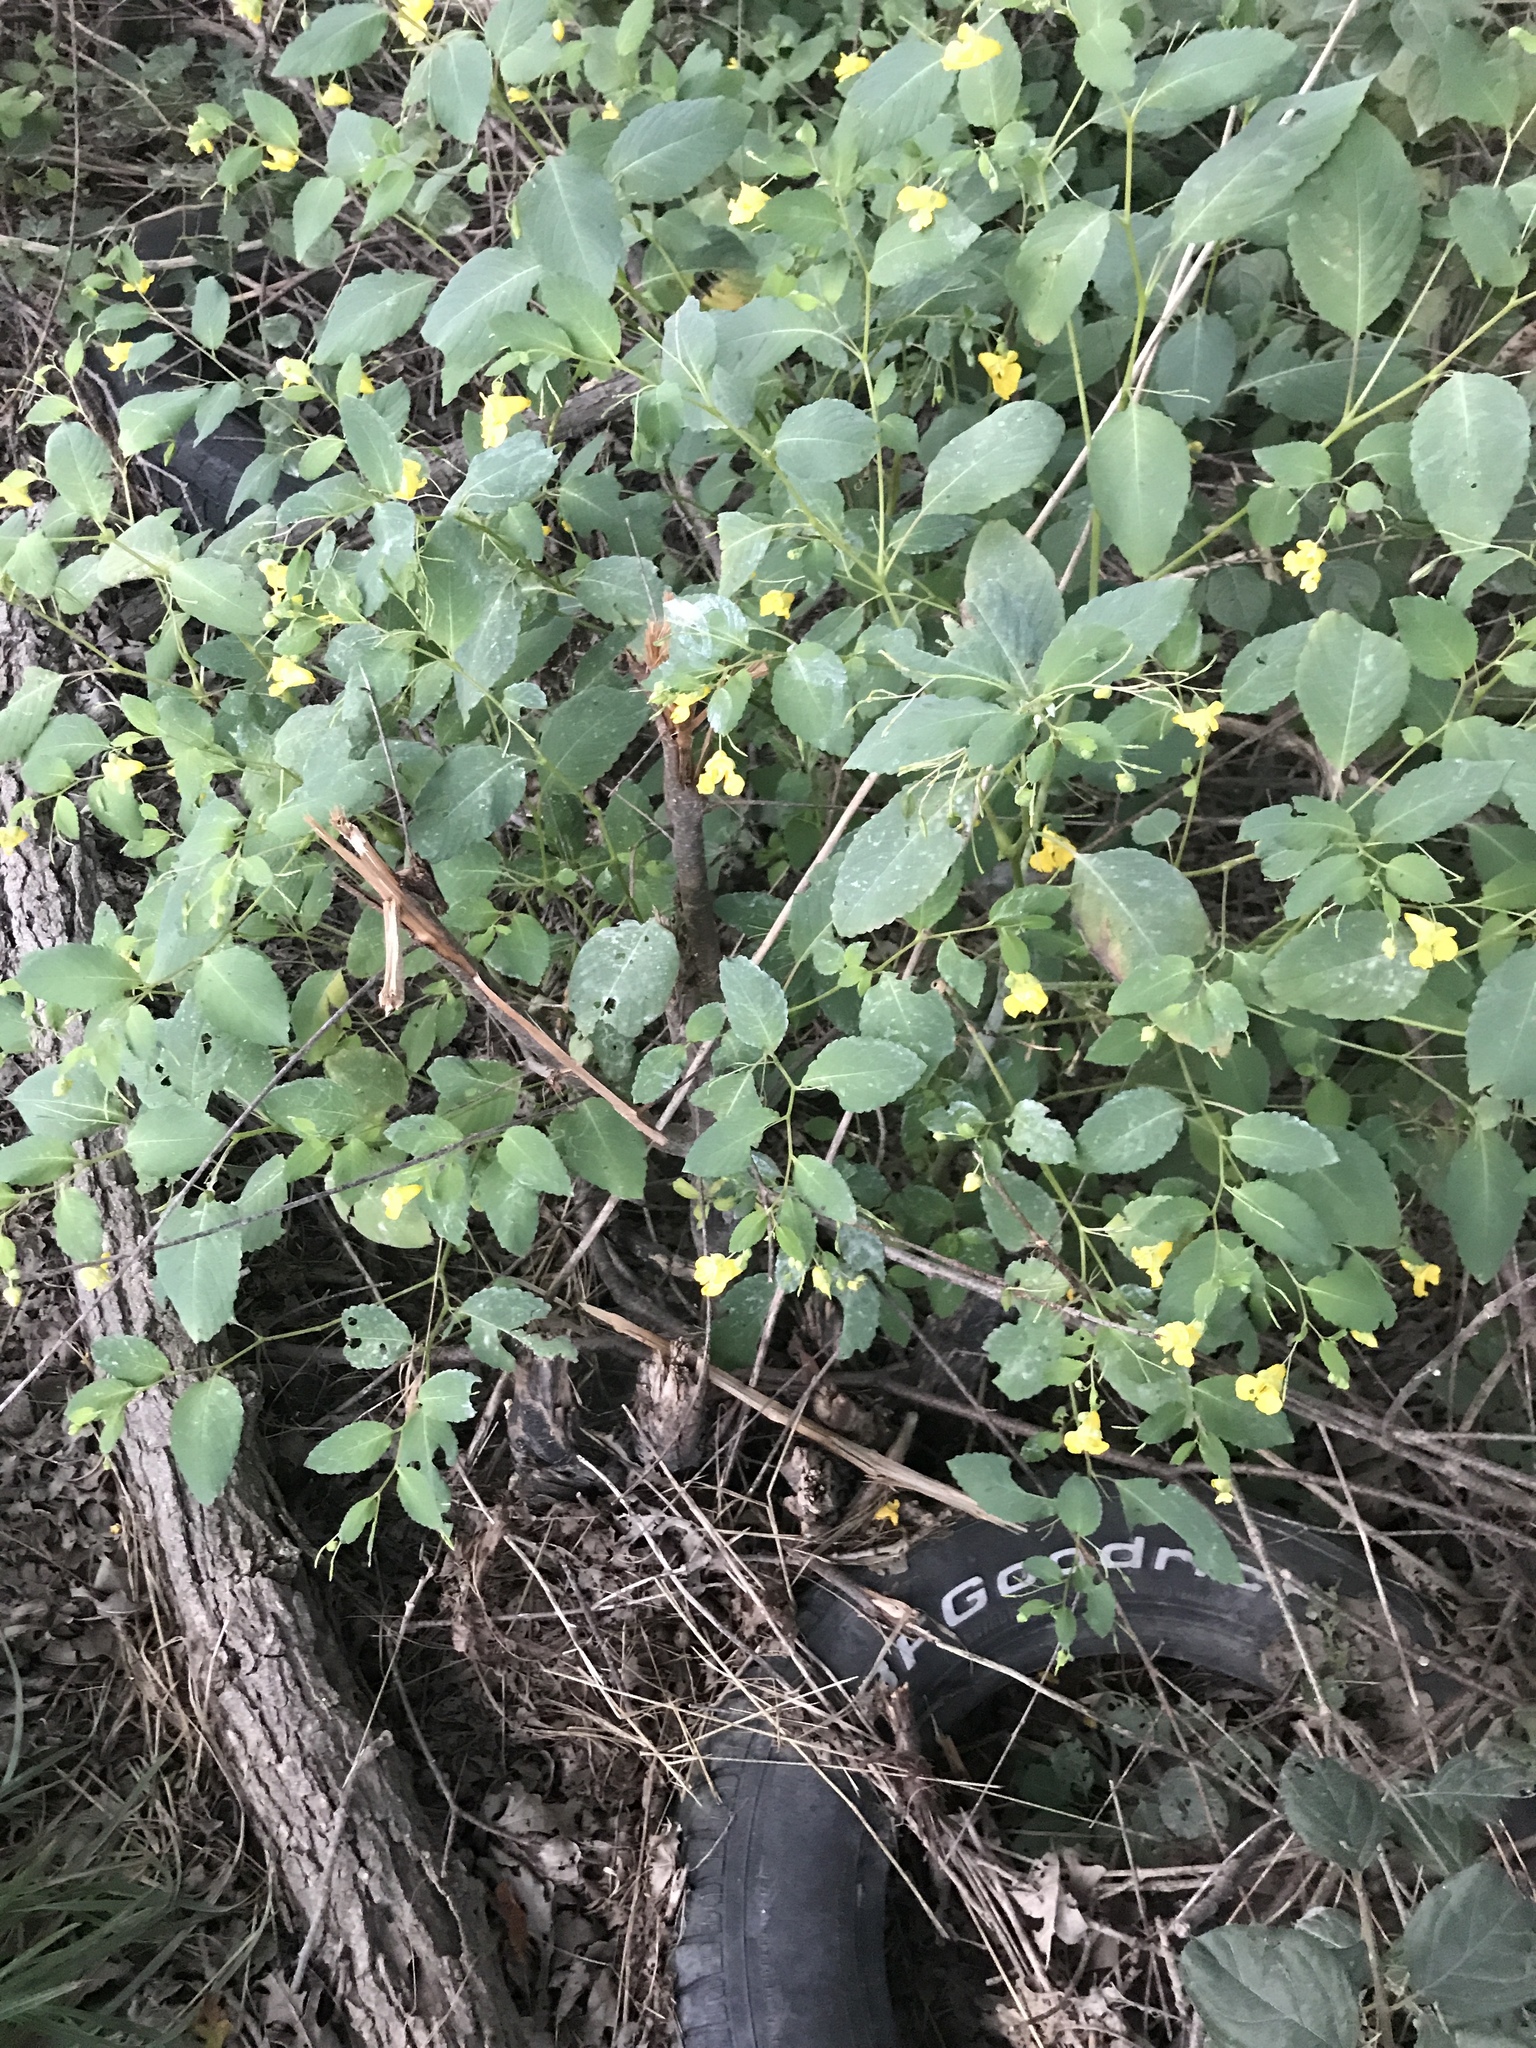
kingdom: Plantae
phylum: Tracheophyta
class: Magnoliopsida
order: Ericales
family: Balsaminaceae
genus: Impatiens
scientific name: Impatiens pallida
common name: Pale snapweed
